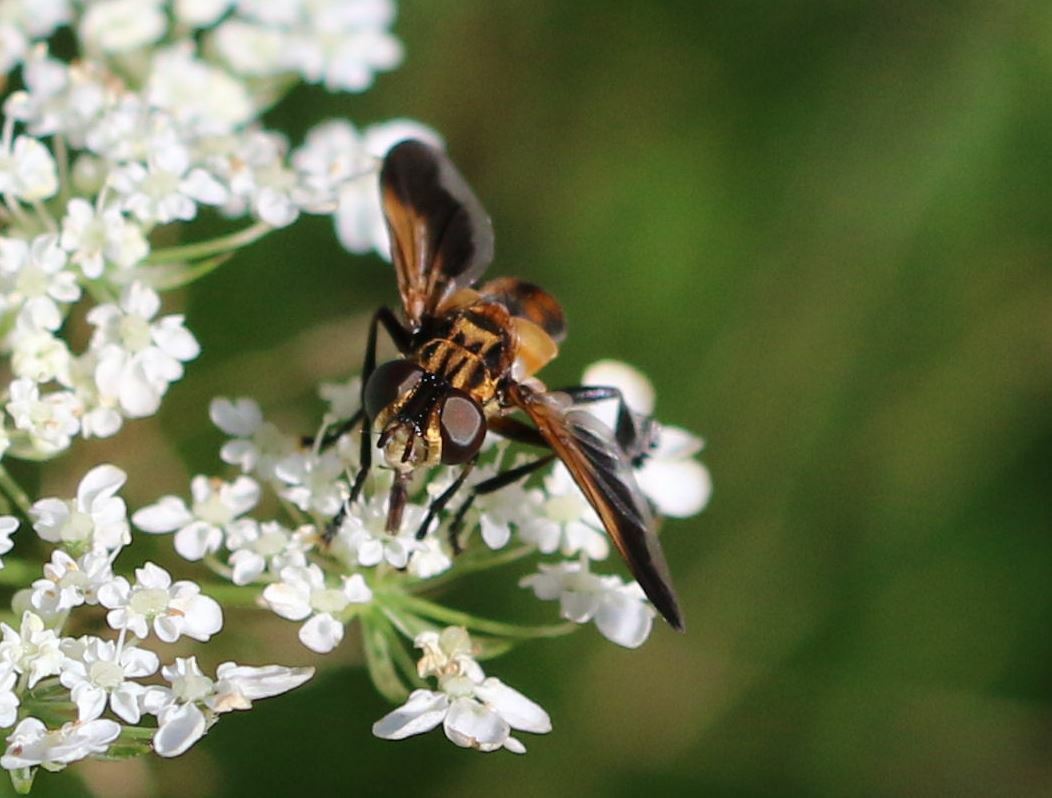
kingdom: Animalia
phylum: Arthropoda
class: Insecta
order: Diptera
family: Tachinidae
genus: Trichopoda
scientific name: Trichopoda pictipennis
